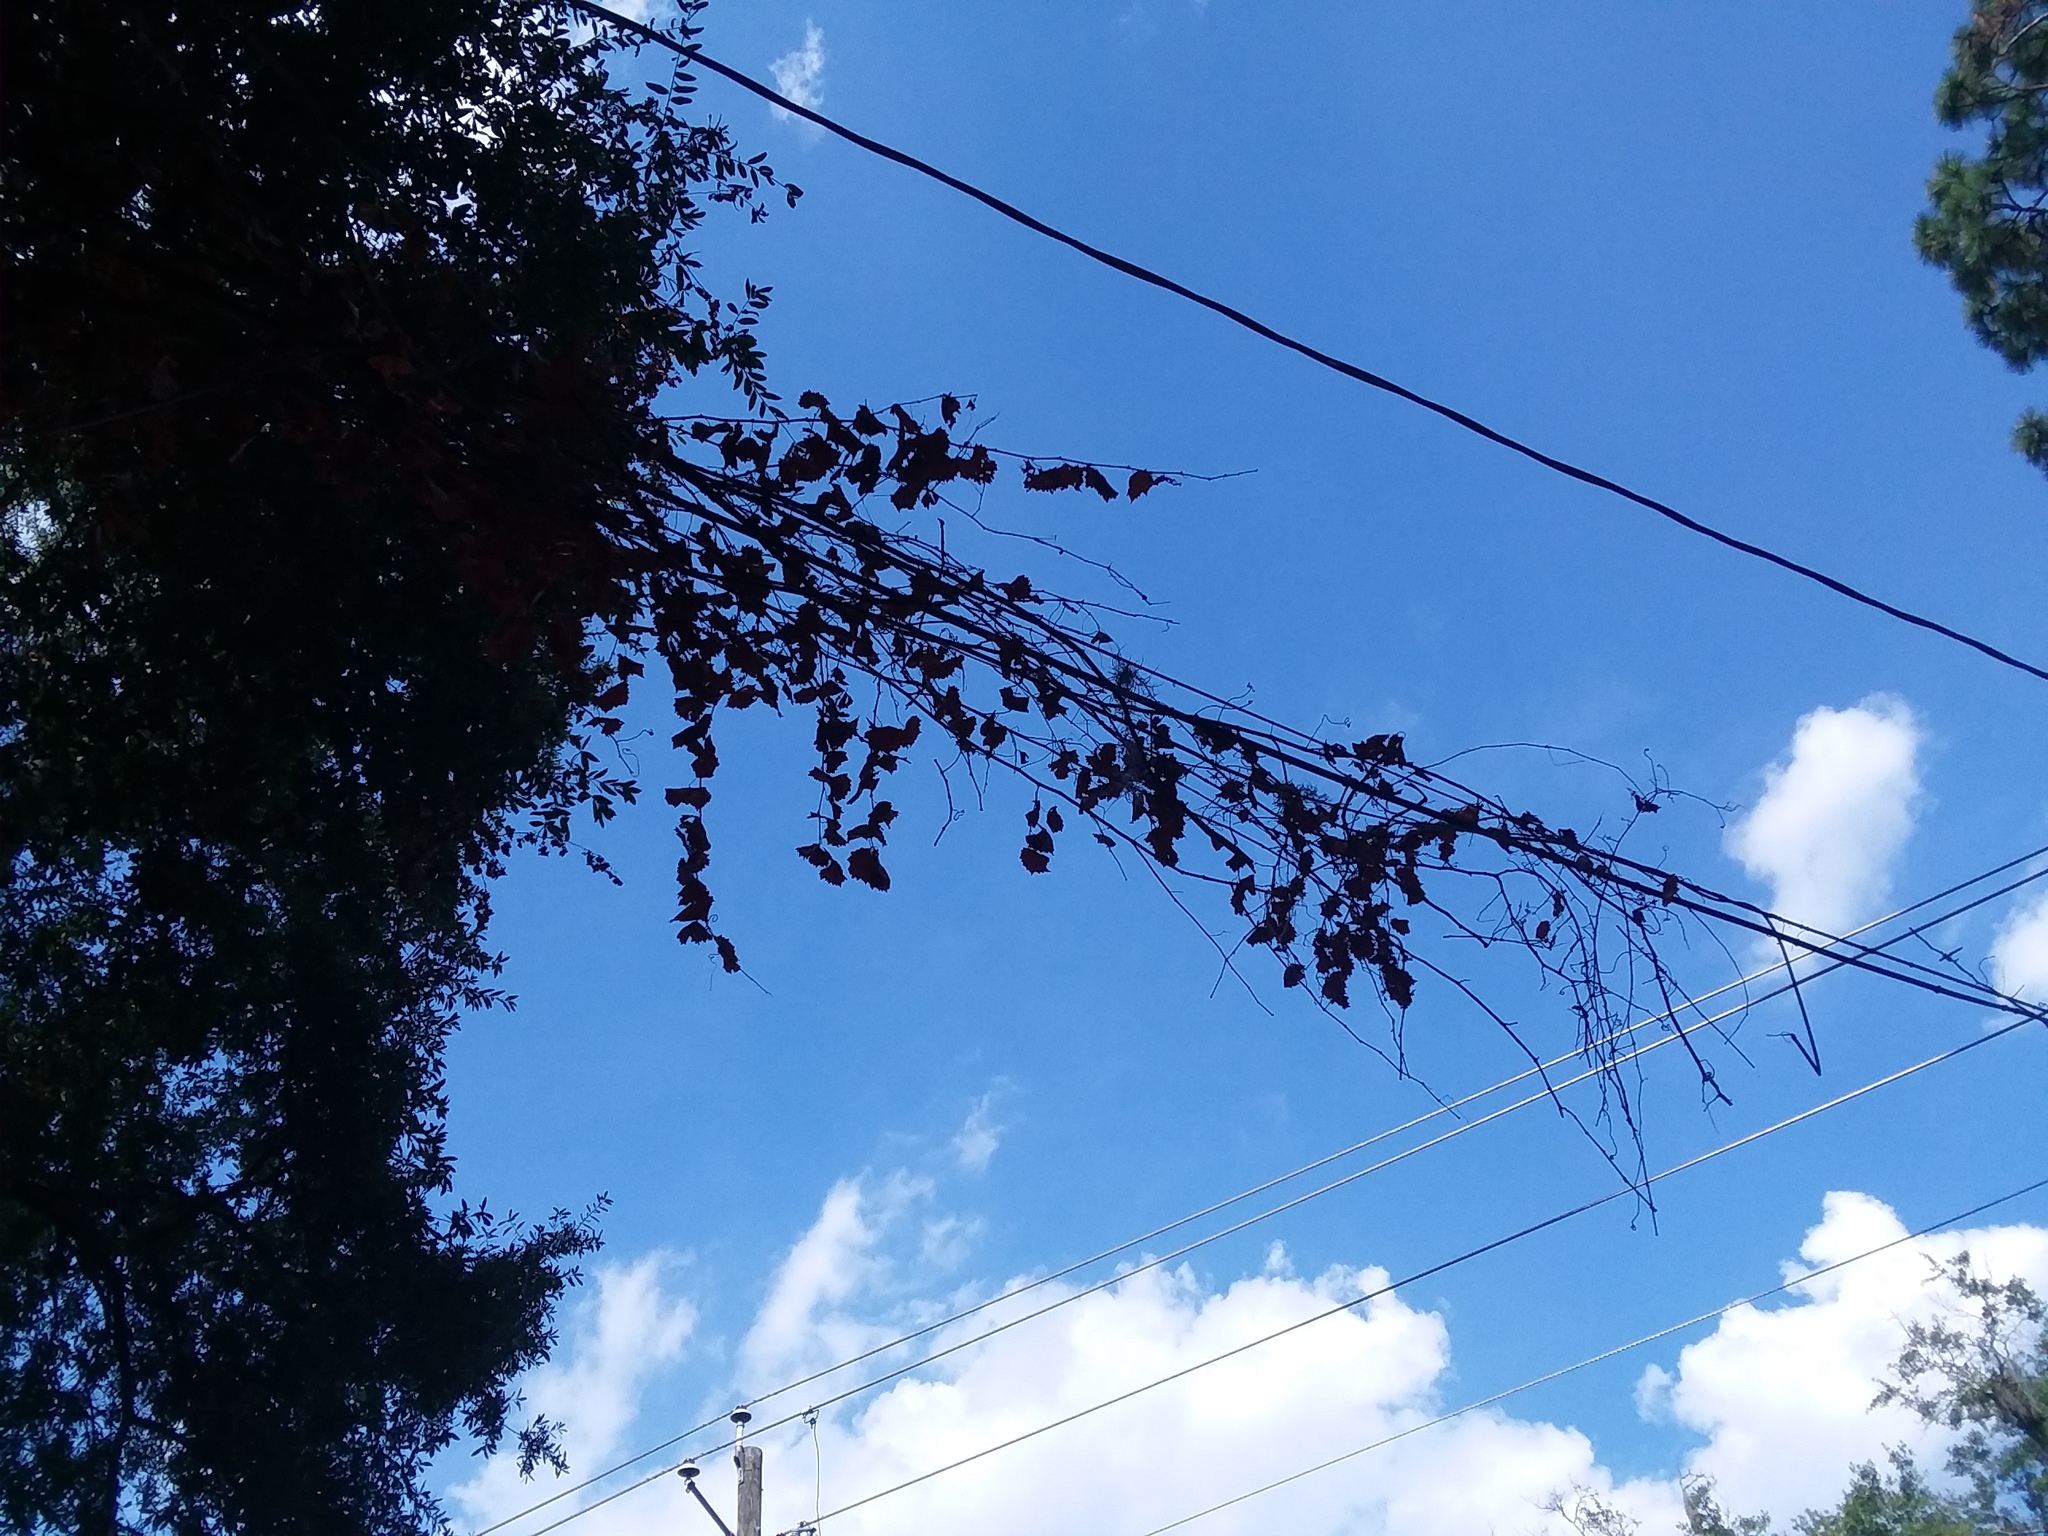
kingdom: Plantae
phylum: Tracheophyta
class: Magnoliopsida
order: Malpighiales
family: Passifloraceae
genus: Passiflora
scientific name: Passiflora incarnata
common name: Apricot-vine
